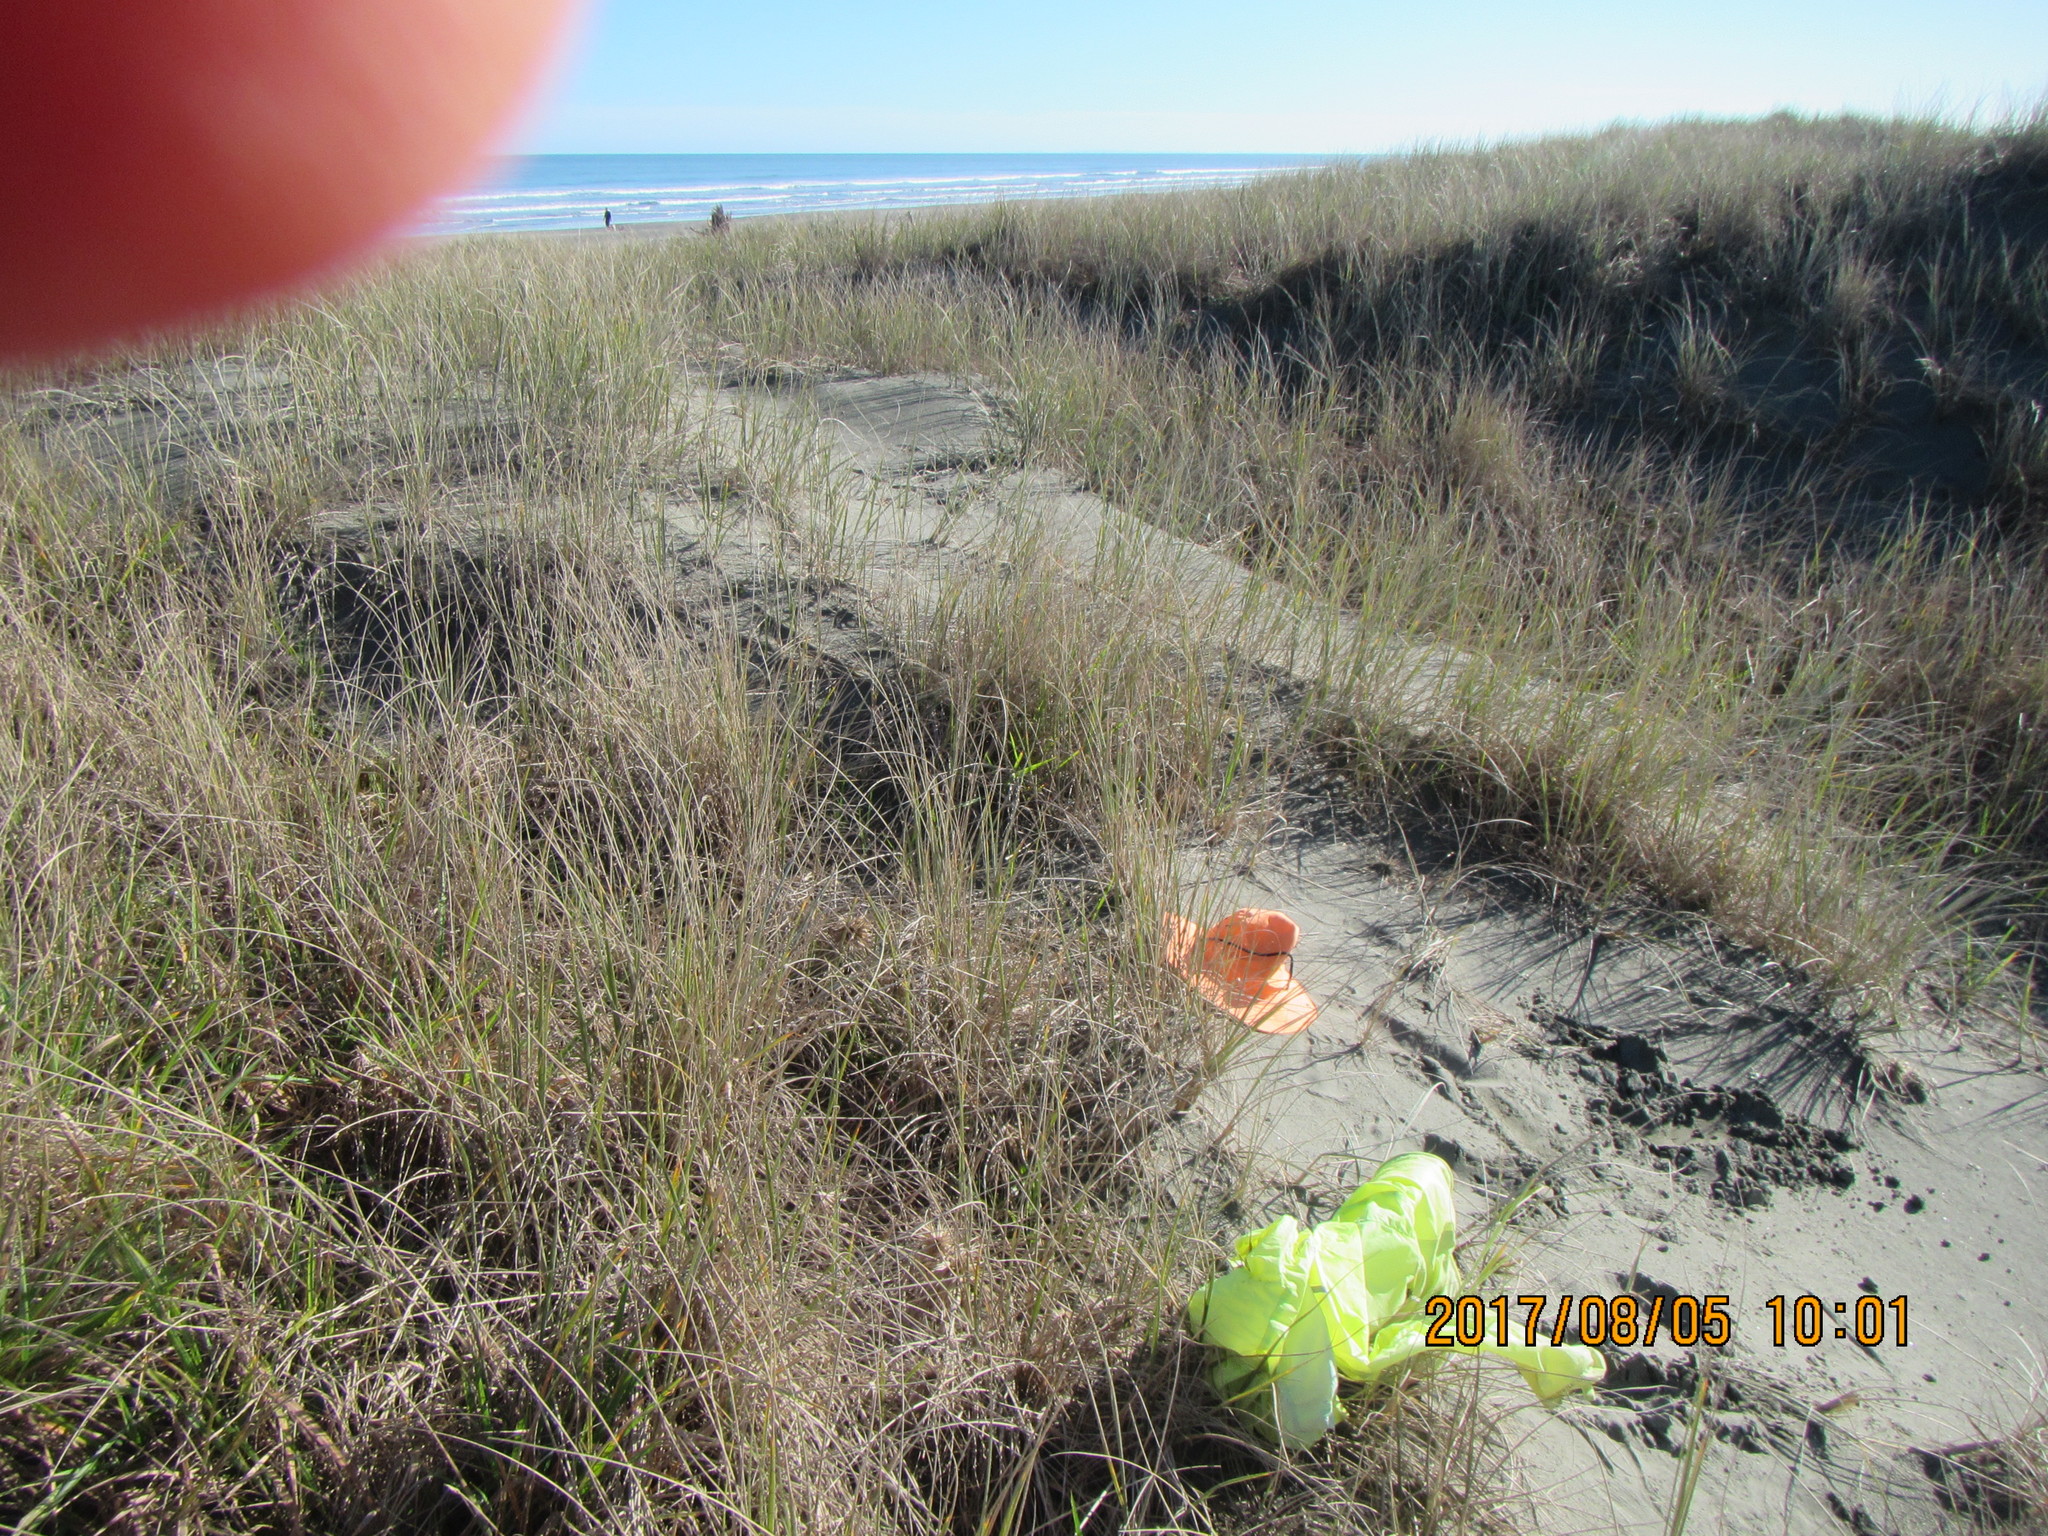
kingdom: Animalia
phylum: Arthropoda
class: Arachnida
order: Araneae
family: Lycosidae
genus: Anoteropsis
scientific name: Anoteropsis litoralis
